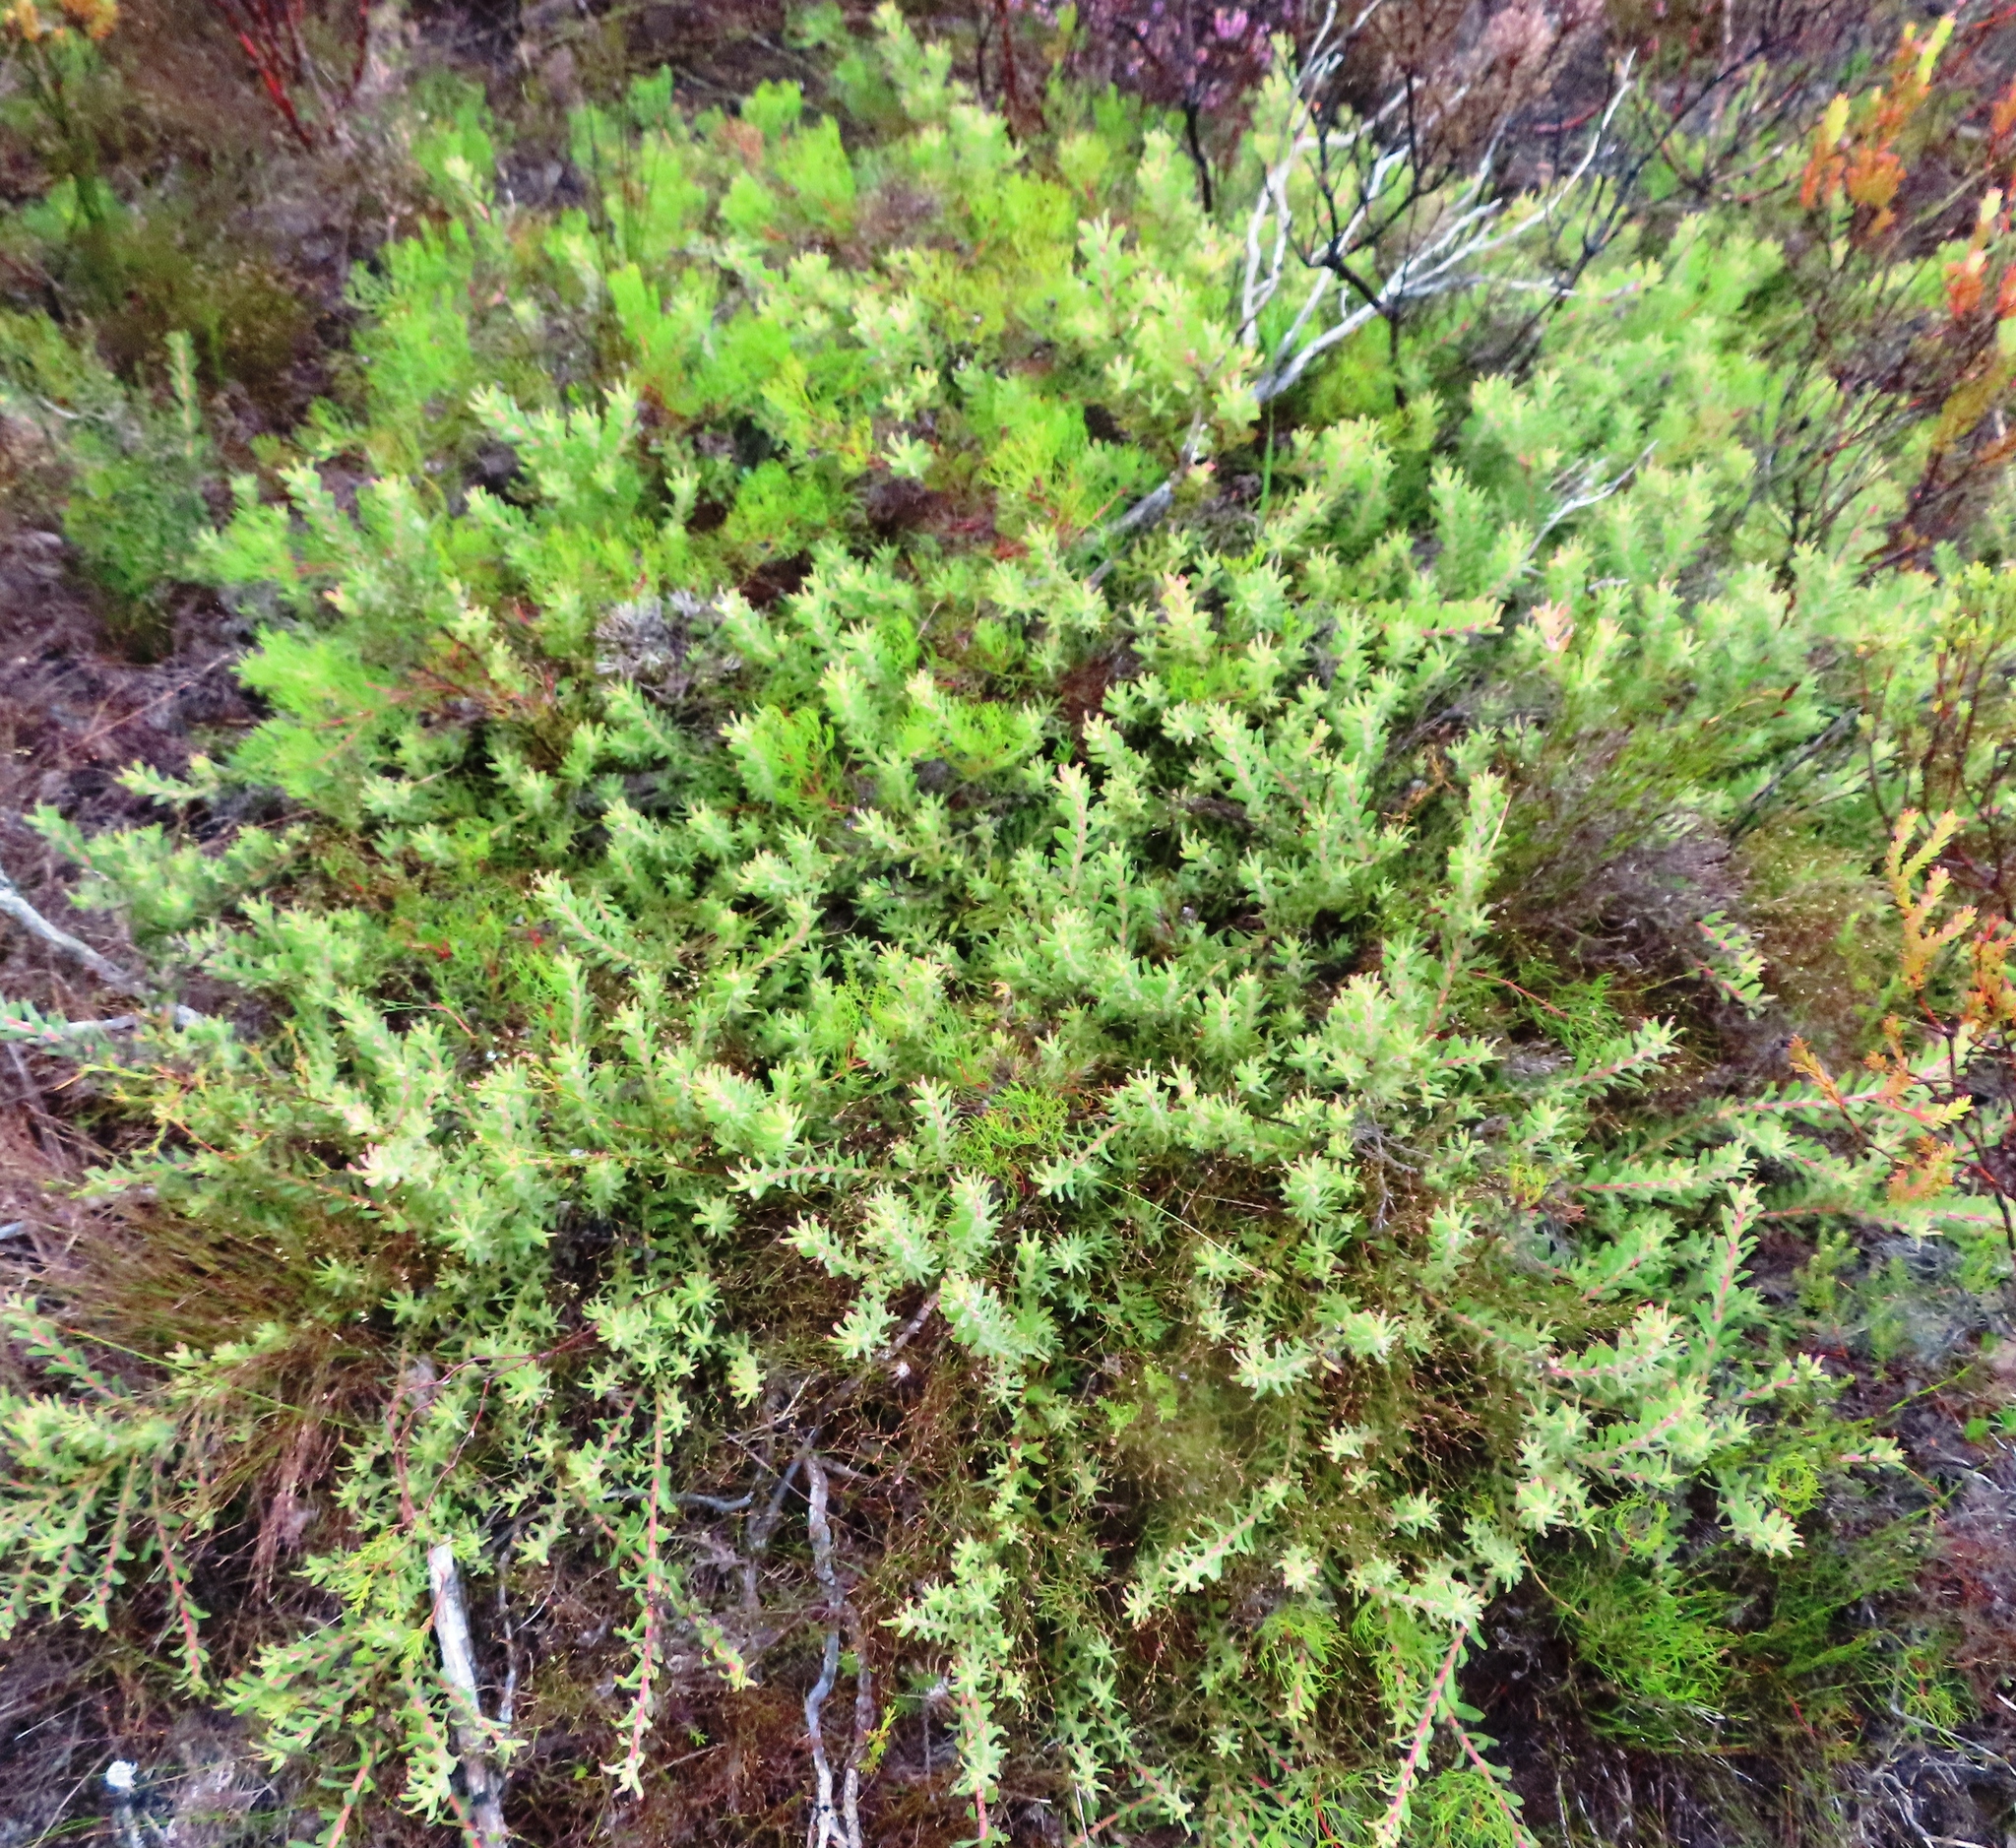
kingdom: Plantae
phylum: Tracheophyta
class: Magnoliopsida
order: Proteales
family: Proteaceae
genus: Leucospermum
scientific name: Leucospermum heterophyllum
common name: Trident pincushion
